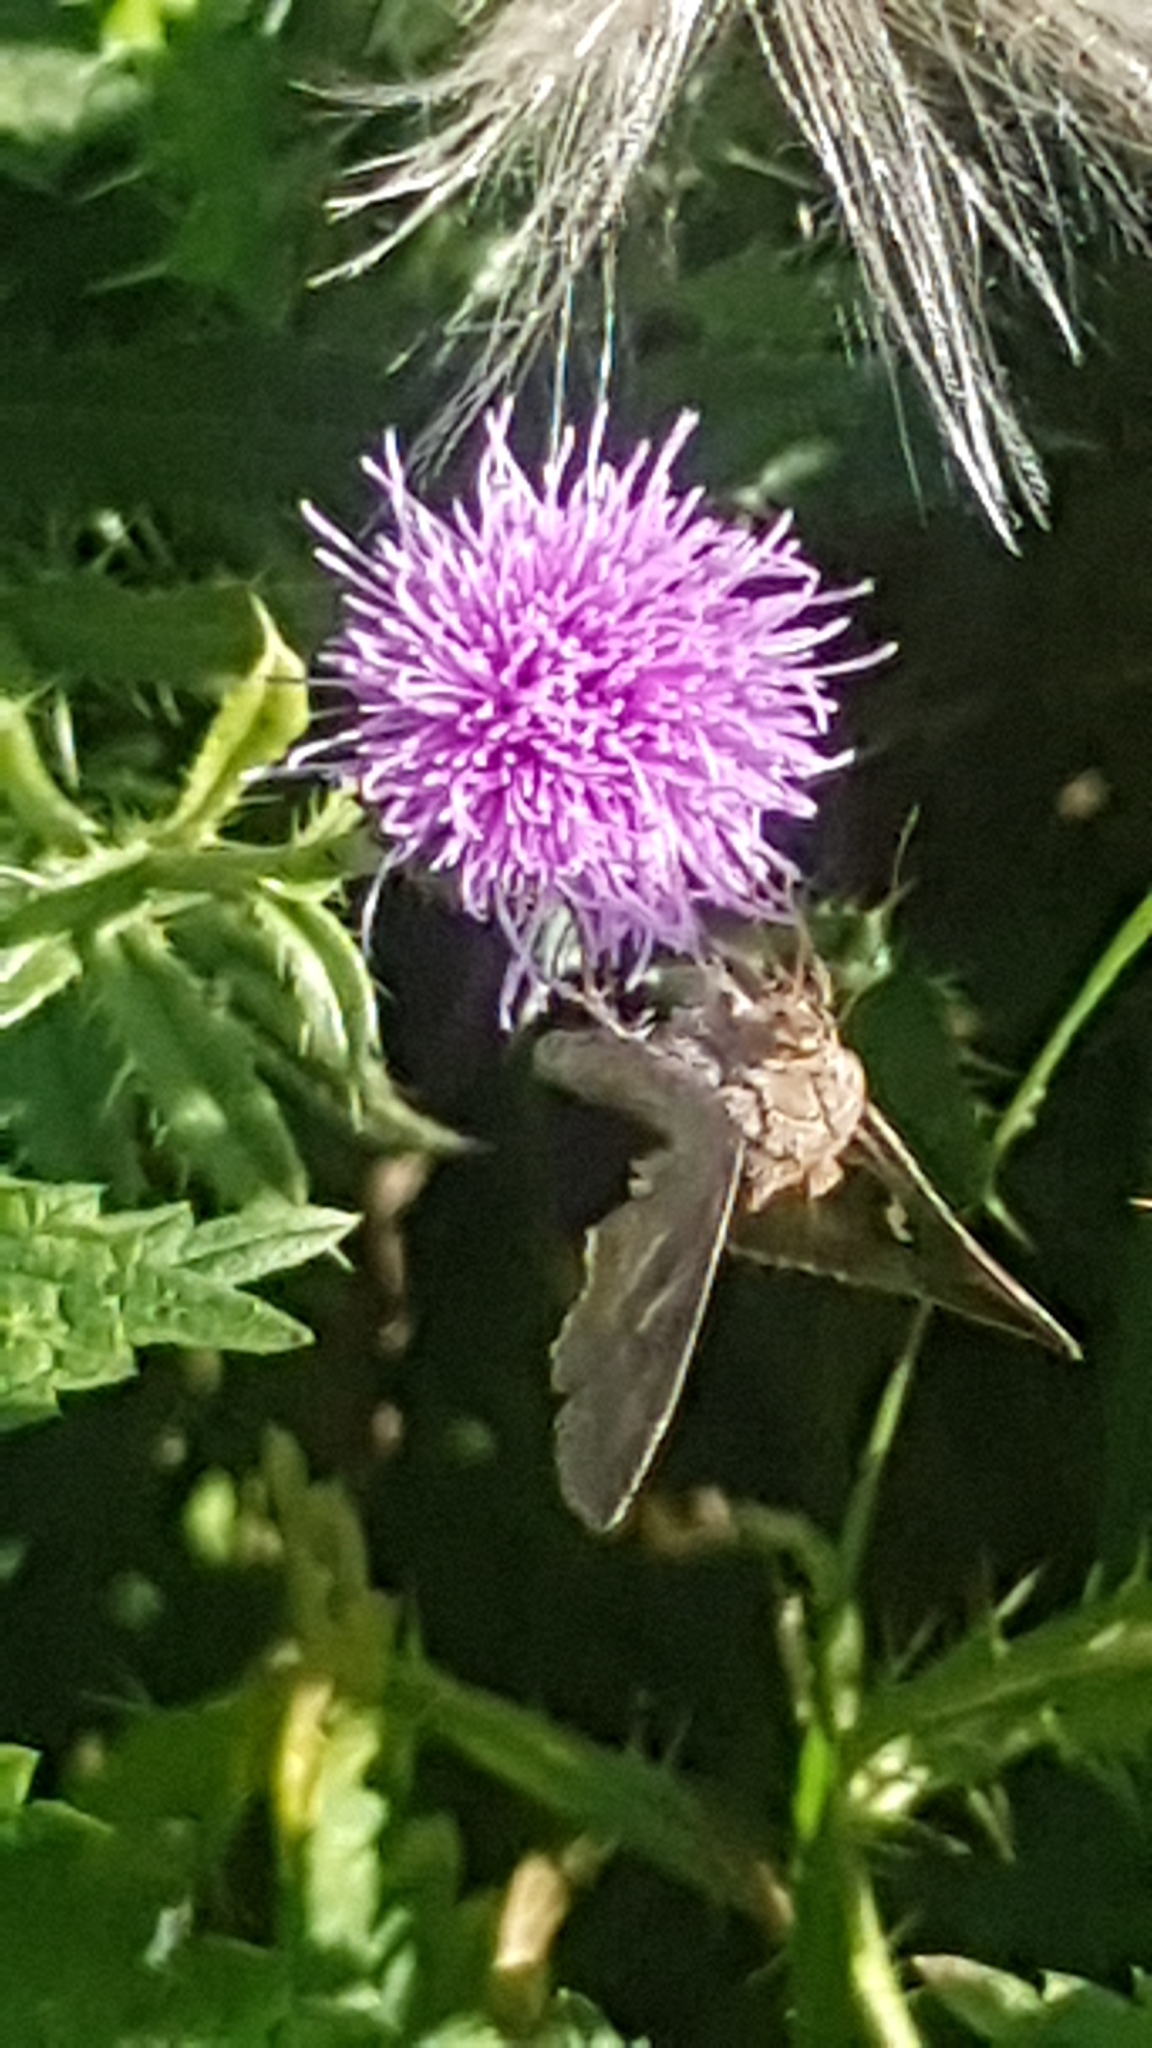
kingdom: Animalia
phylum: Arthropoda
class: Insecta
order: Lepidoptera
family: Noctuidae
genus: Autographa
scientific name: Autographa gamma
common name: Silver y
